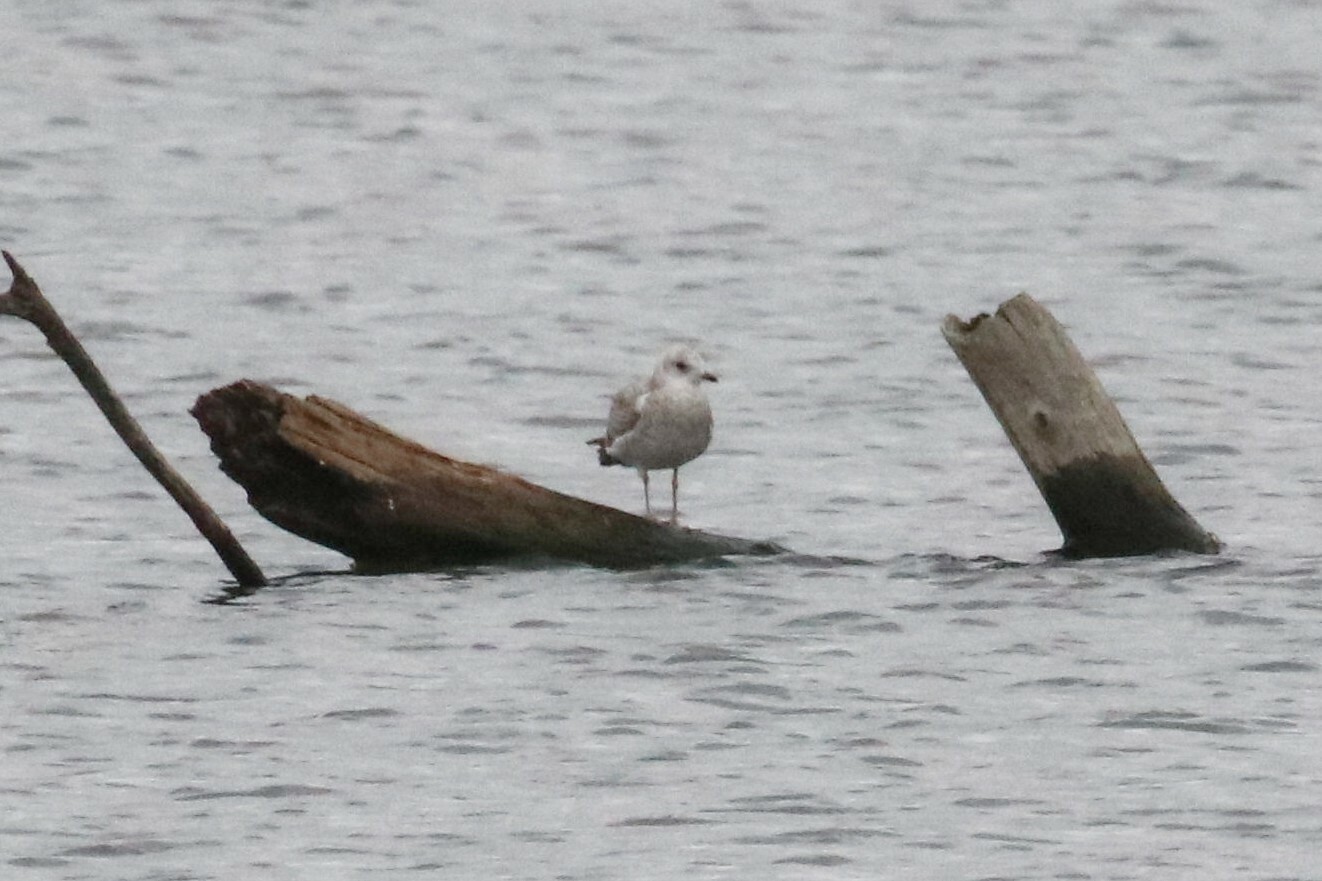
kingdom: Animalia
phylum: Chordata
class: Aves
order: Charadriiformes
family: Laridae
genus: Larus
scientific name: Larus canus
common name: Mew gull
